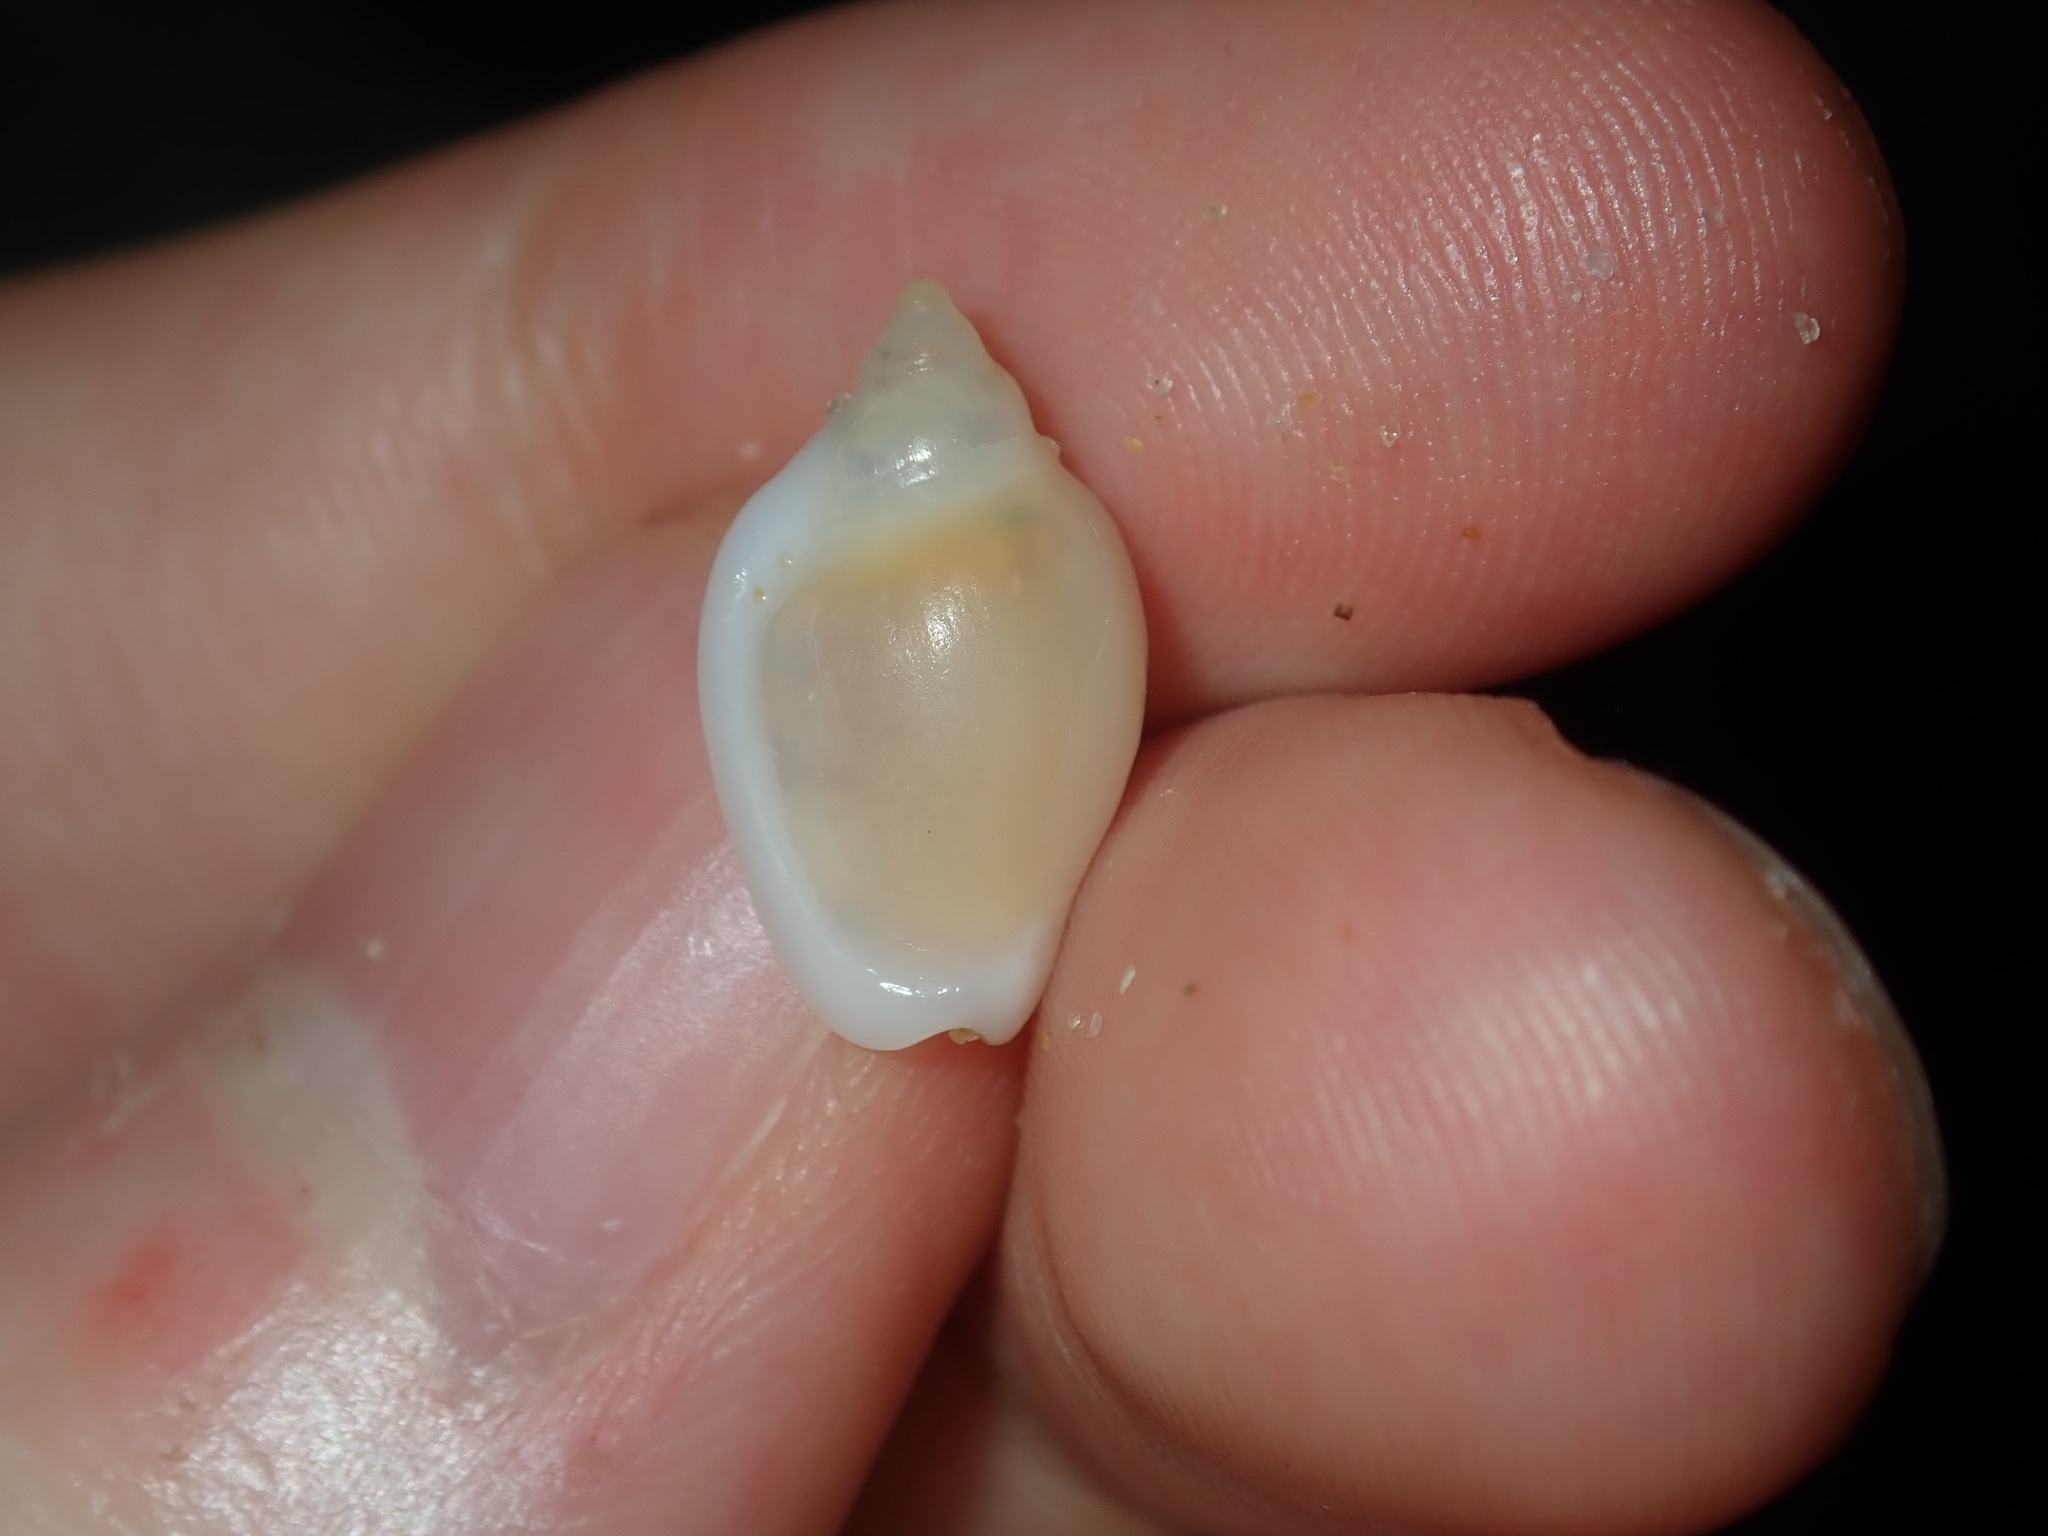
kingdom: Animalia
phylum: Mollusca
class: Gastropoda
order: Neogastropoda
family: Marginellidae
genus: Austroginella
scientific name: Austroginella muscaria
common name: Fly marginella
